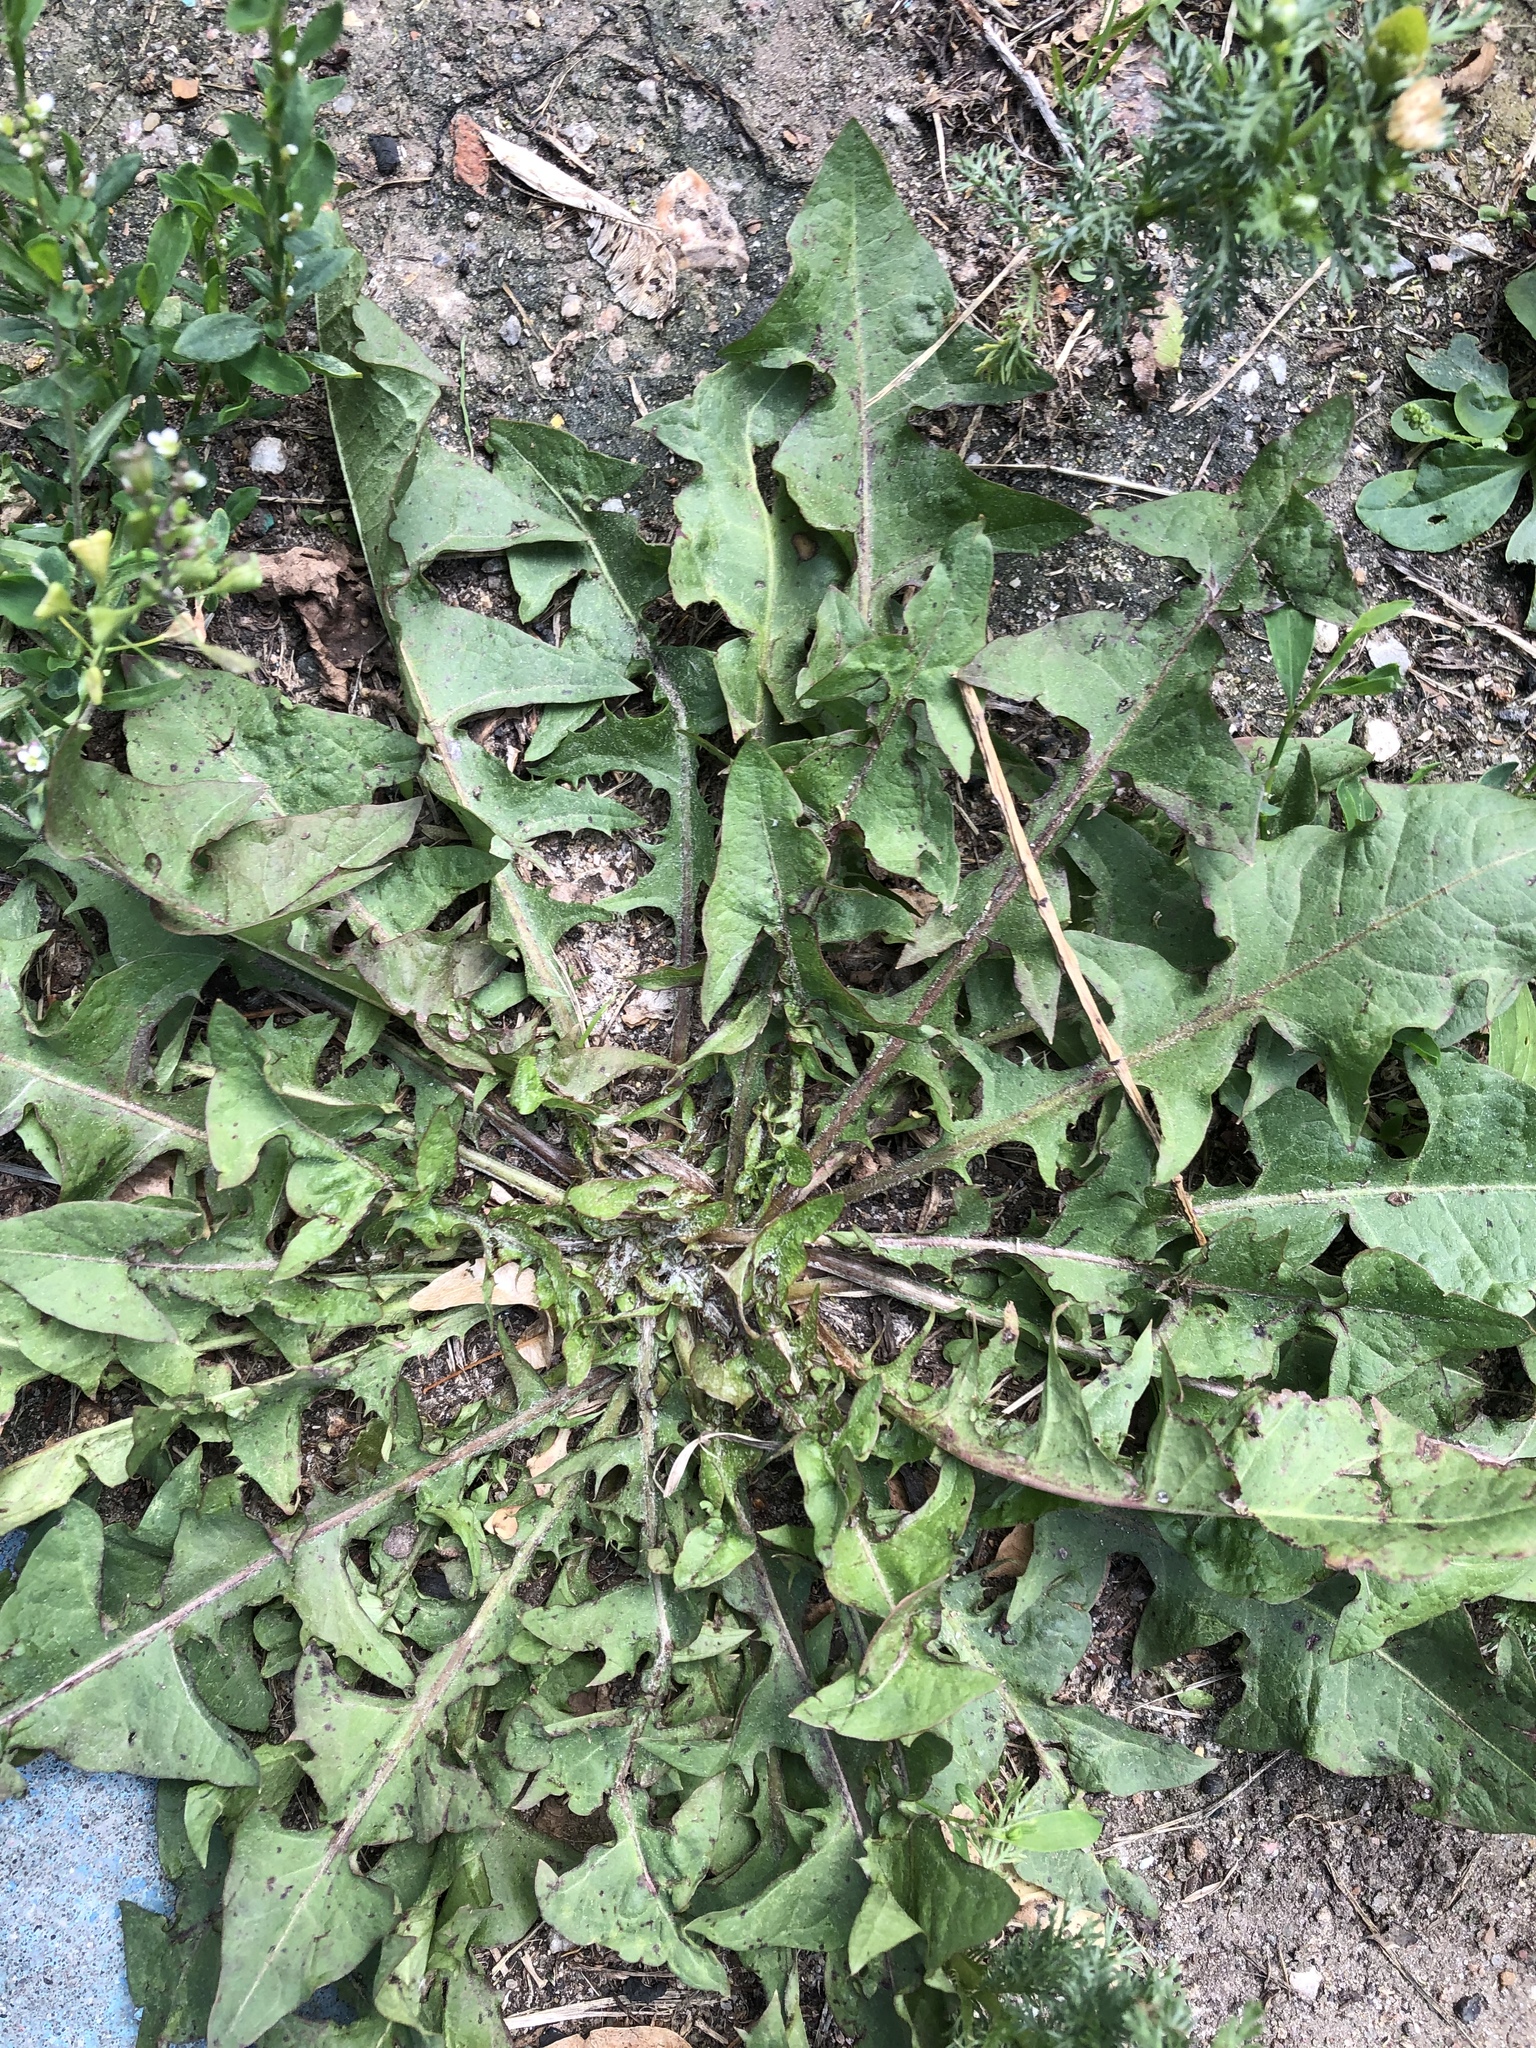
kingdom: Plantae
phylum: Tracheophyta
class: Magnoliopsida
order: Asterales
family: Asteraceae
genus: Taraxacum
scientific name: Taraxacum officinale
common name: Common dandelion
